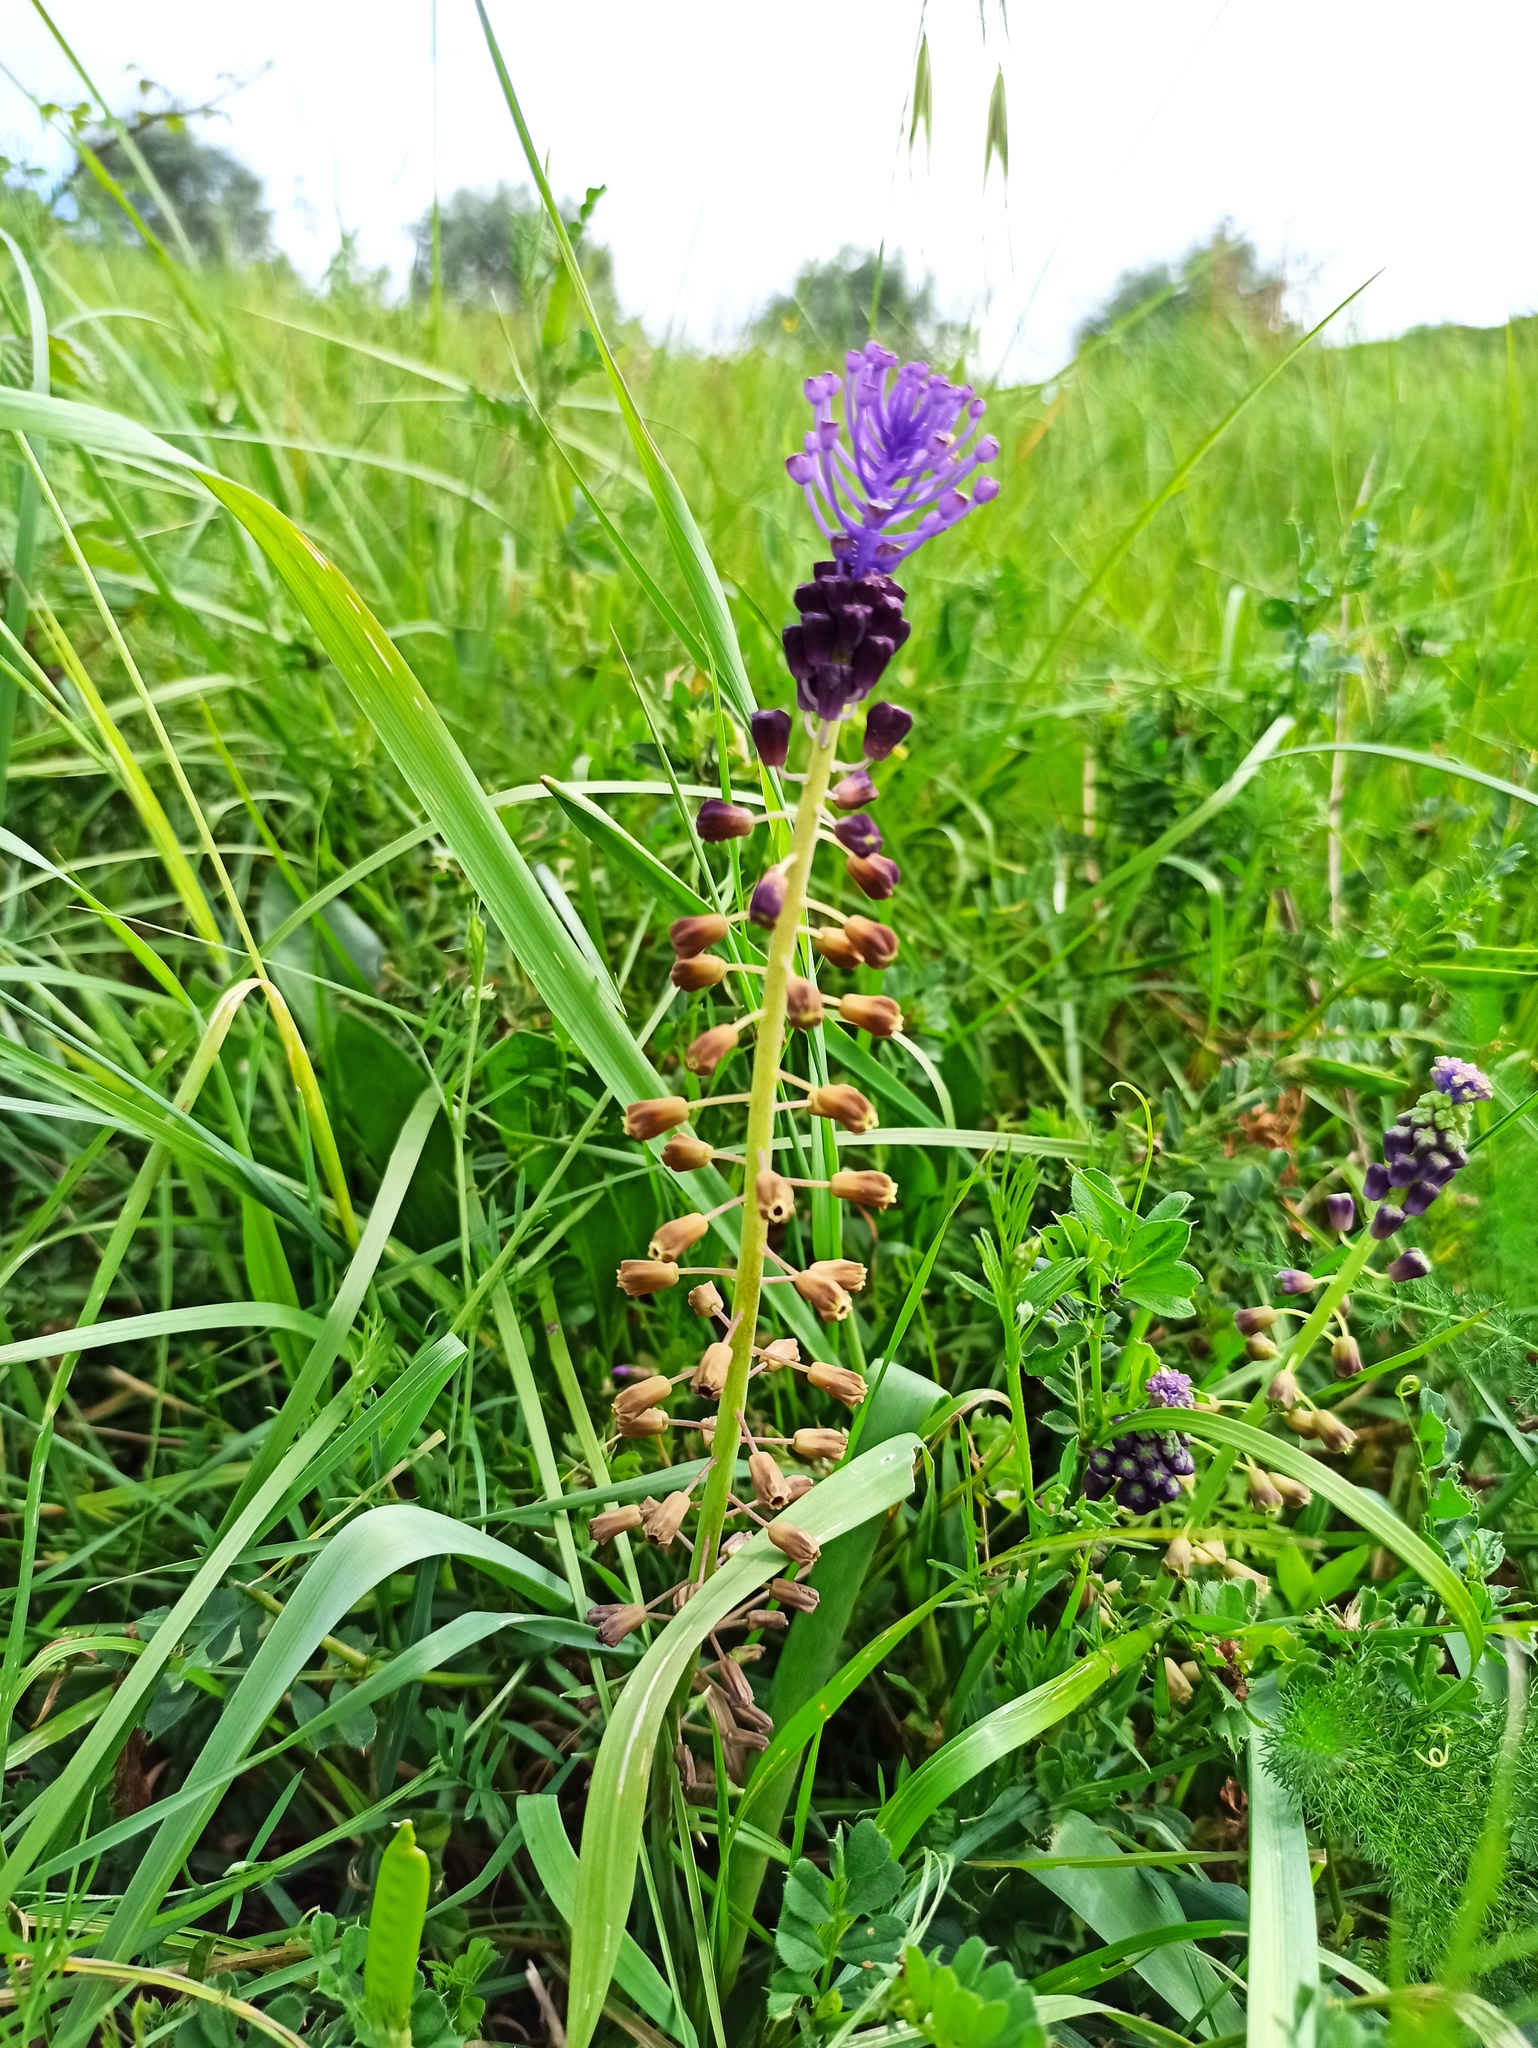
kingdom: Plantae
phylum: Tracheophyta
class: Liliopsida
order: Asparagales
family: Asparagaceae
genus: Muscari
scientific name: Muscari comosum
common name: Tassel hyacinth
